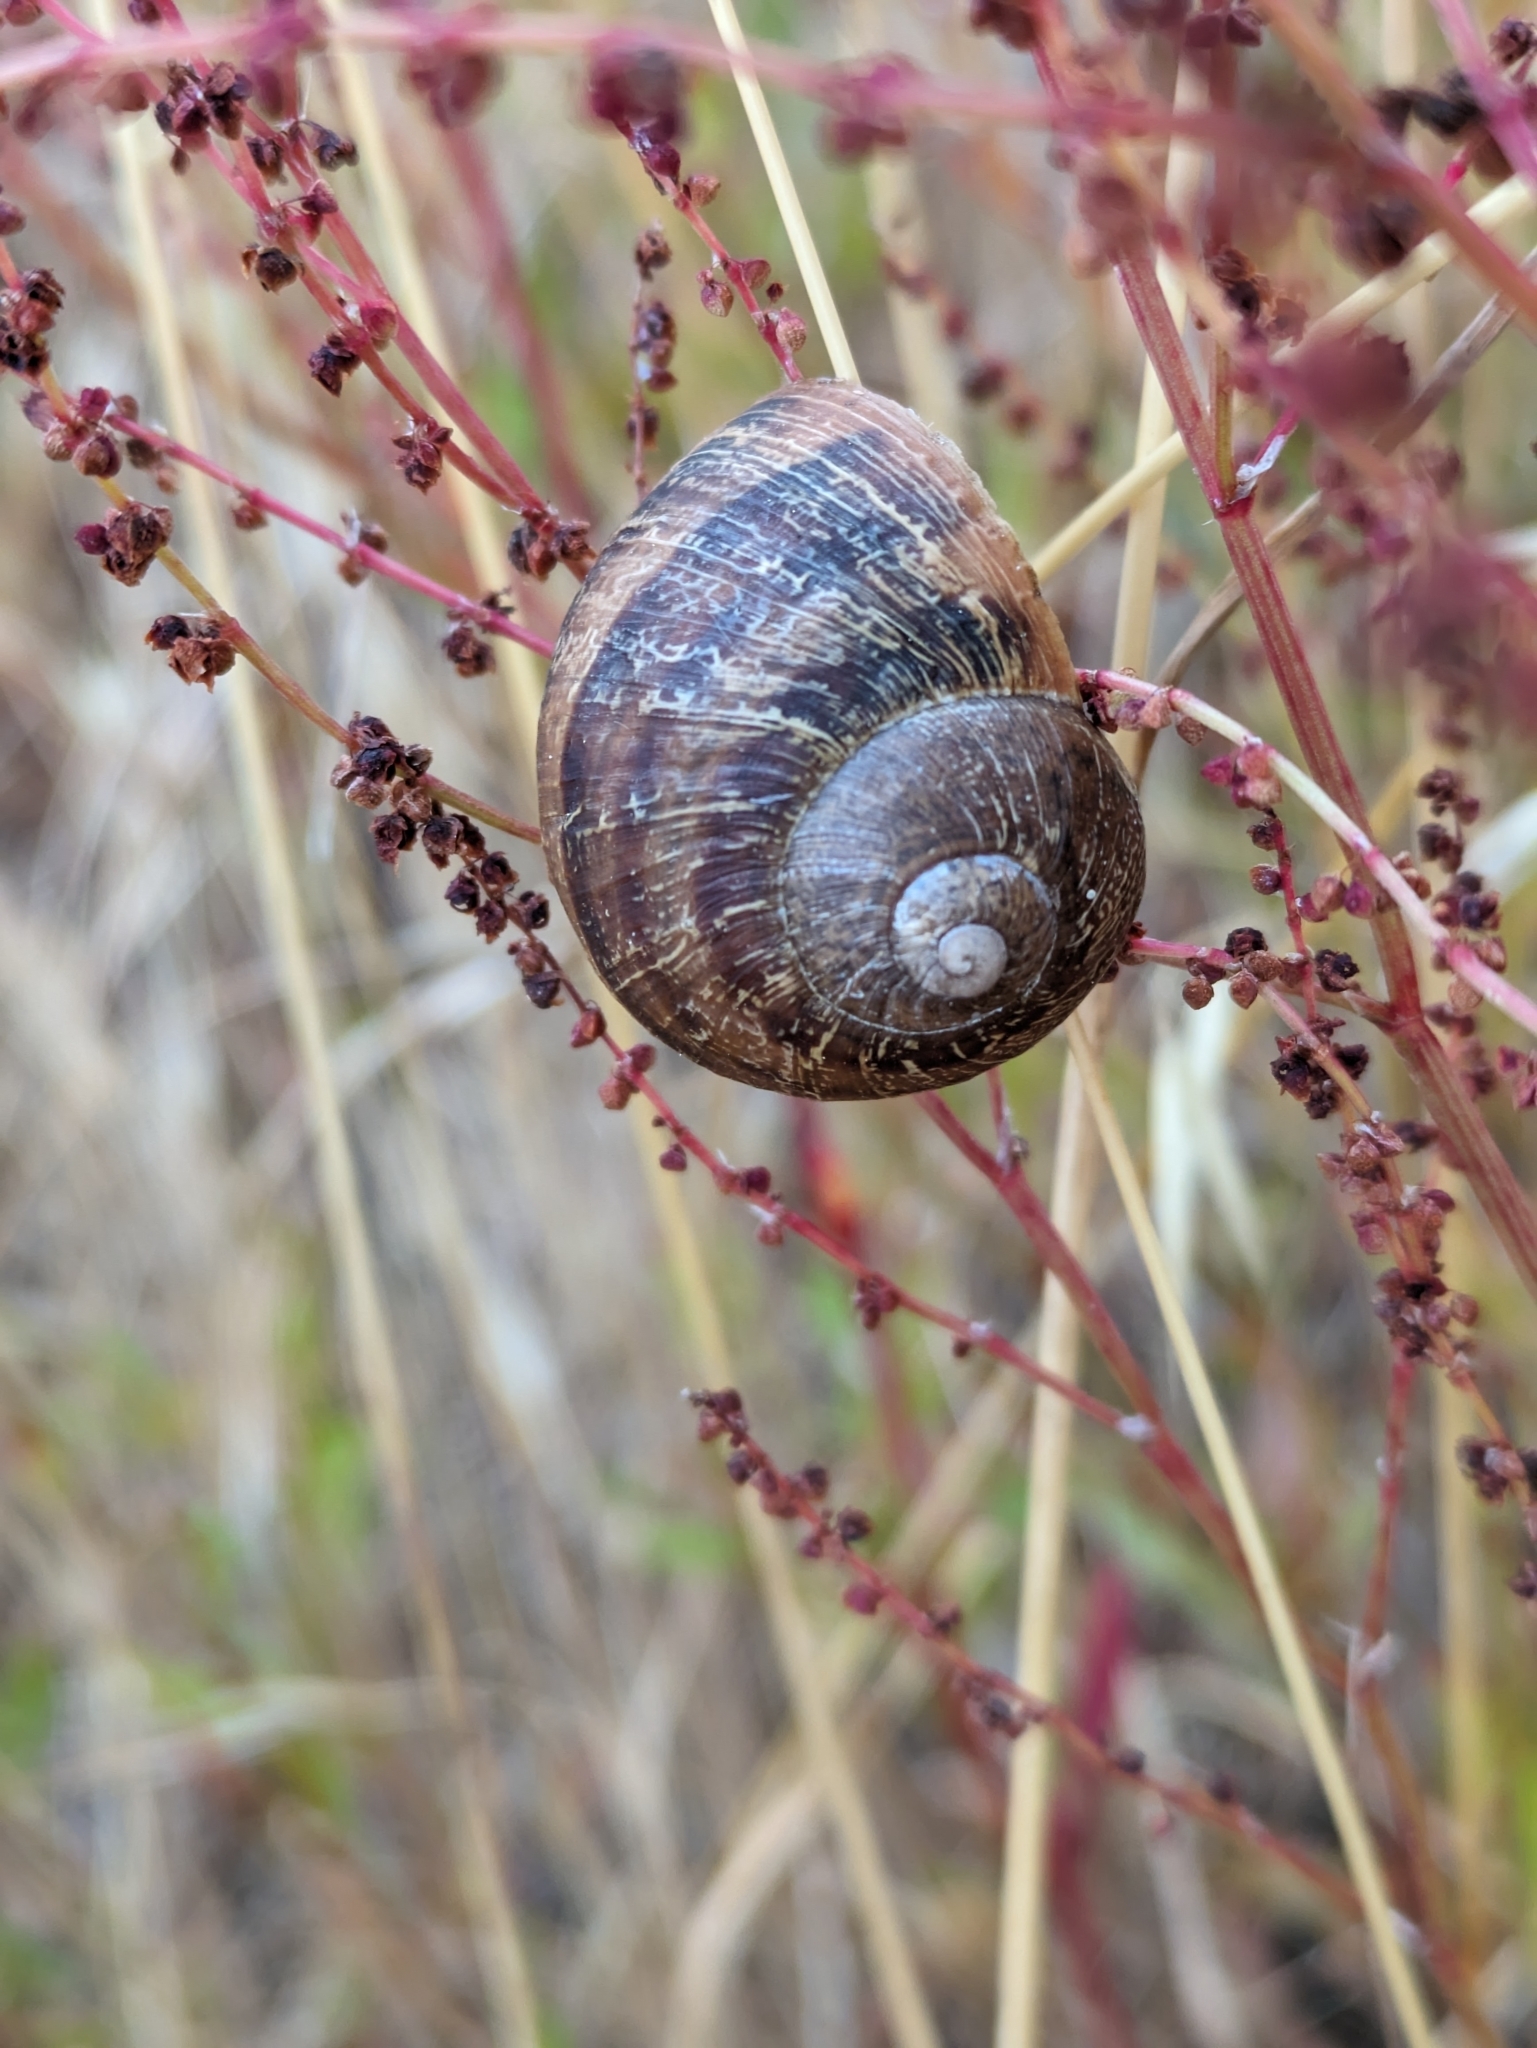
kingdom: Animalia
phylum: Mollusca
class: Gastropoda
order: Stylommatophora
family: Helicidae
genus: Cornu
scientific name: Cornu aspersum
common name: Brown garden snail
